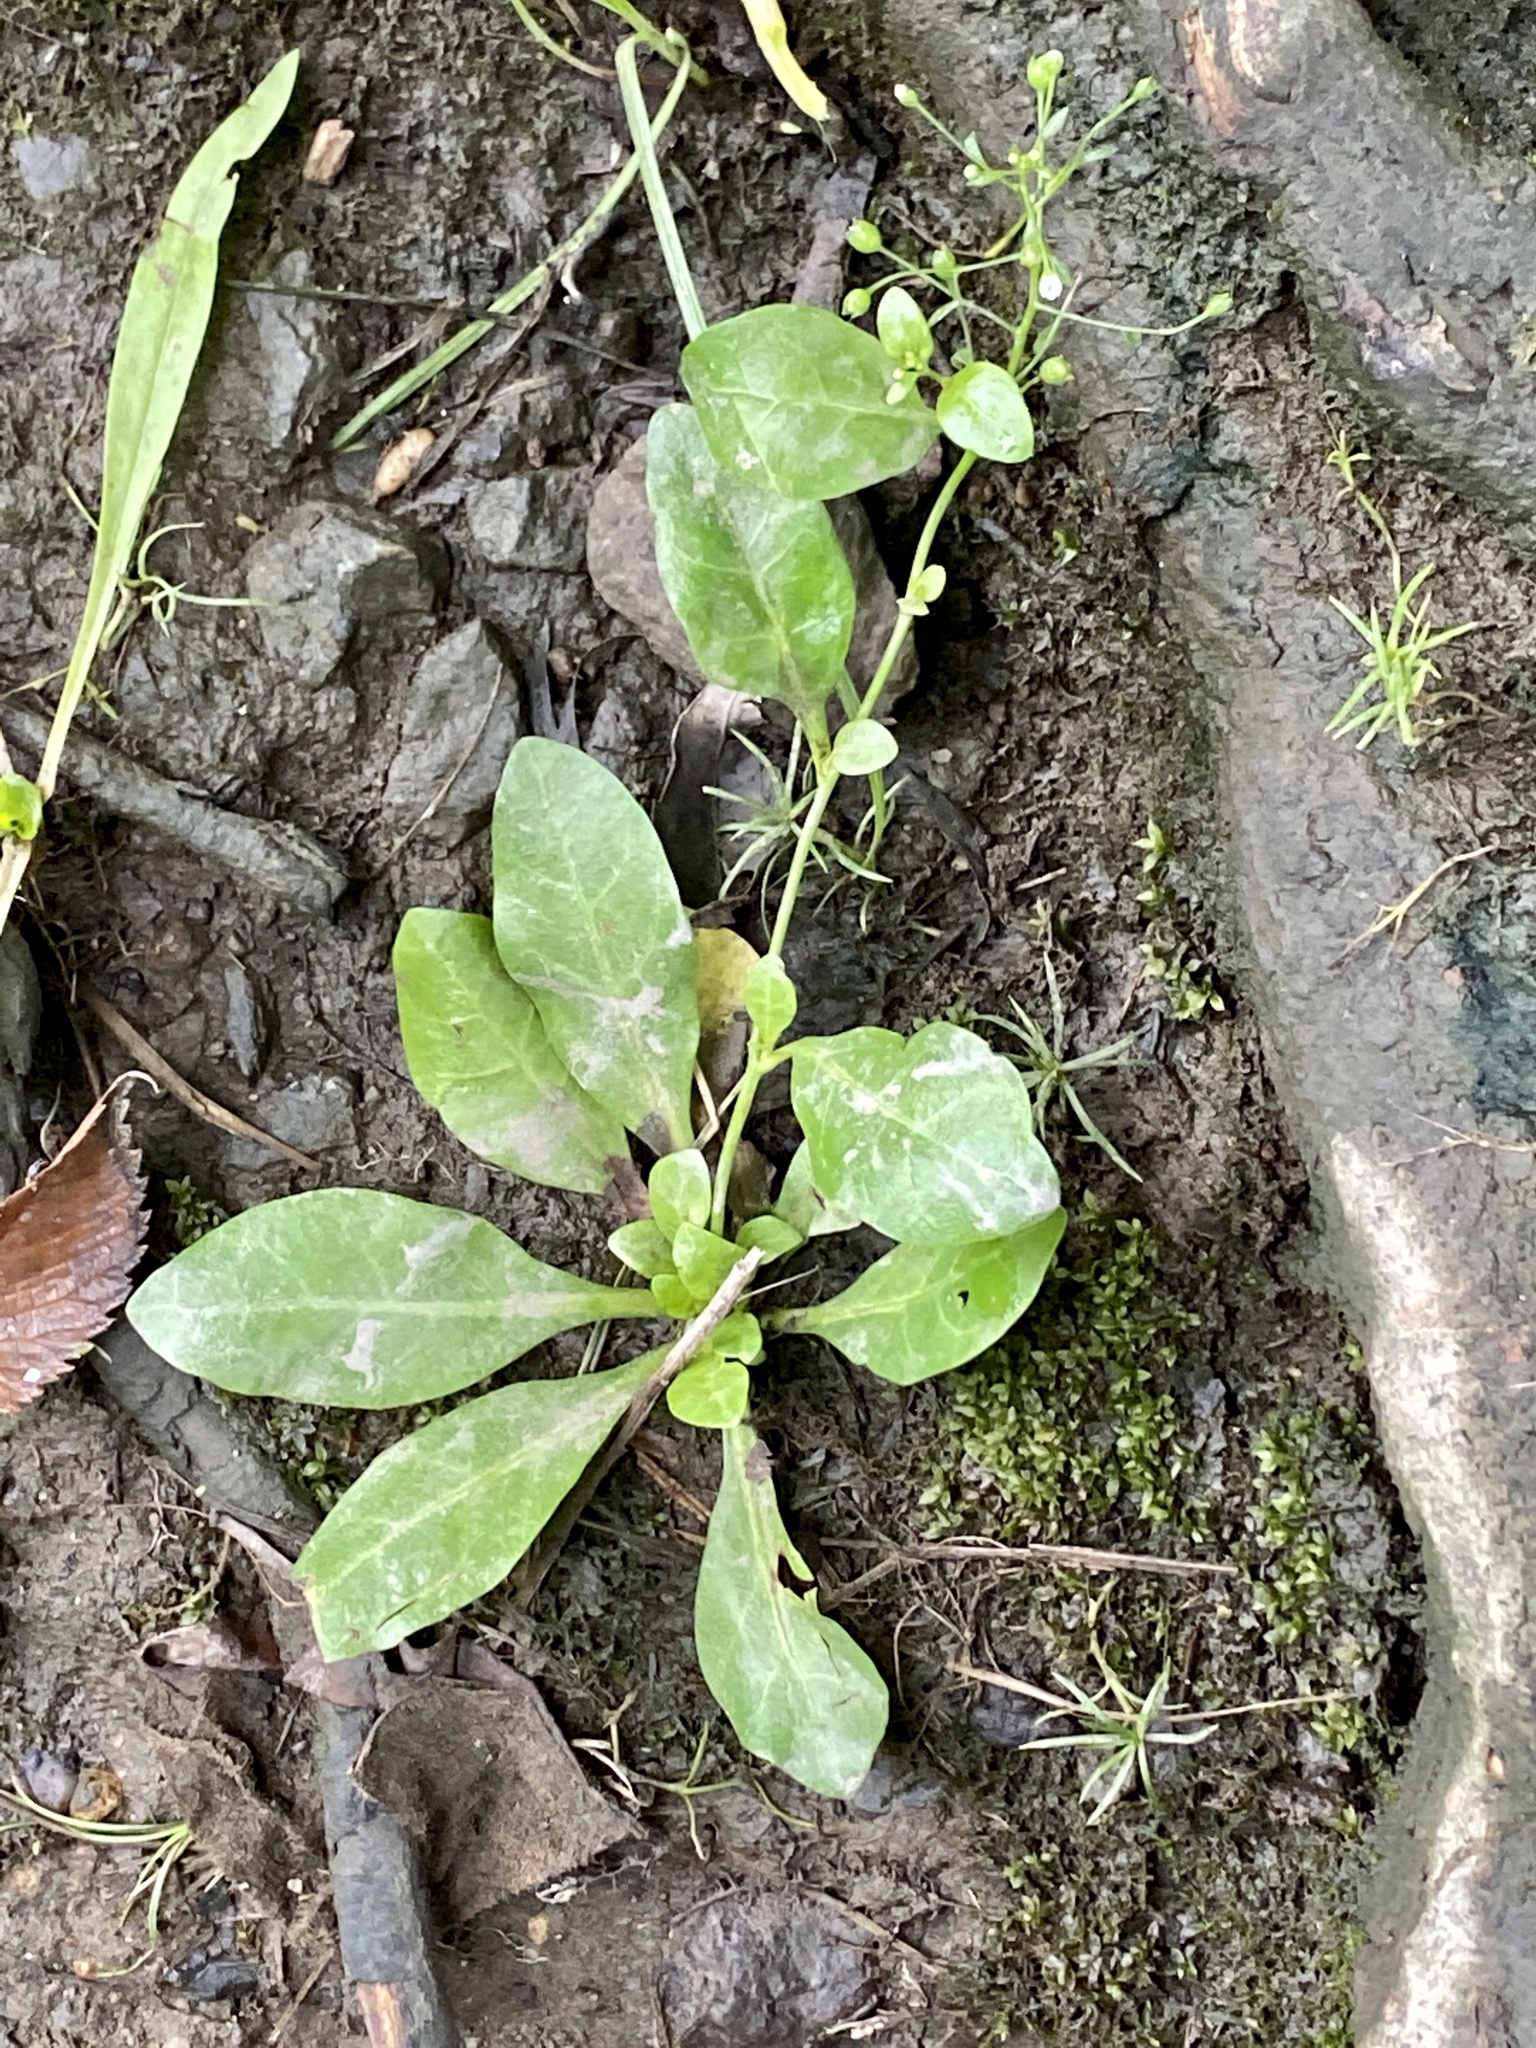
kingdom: Plantae
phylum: Tracheophyta
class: Magnoliopsida
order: Ericales
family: Primulaceae
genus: Samolus
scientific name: Samolus parviflorus
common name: False water pimpernel
